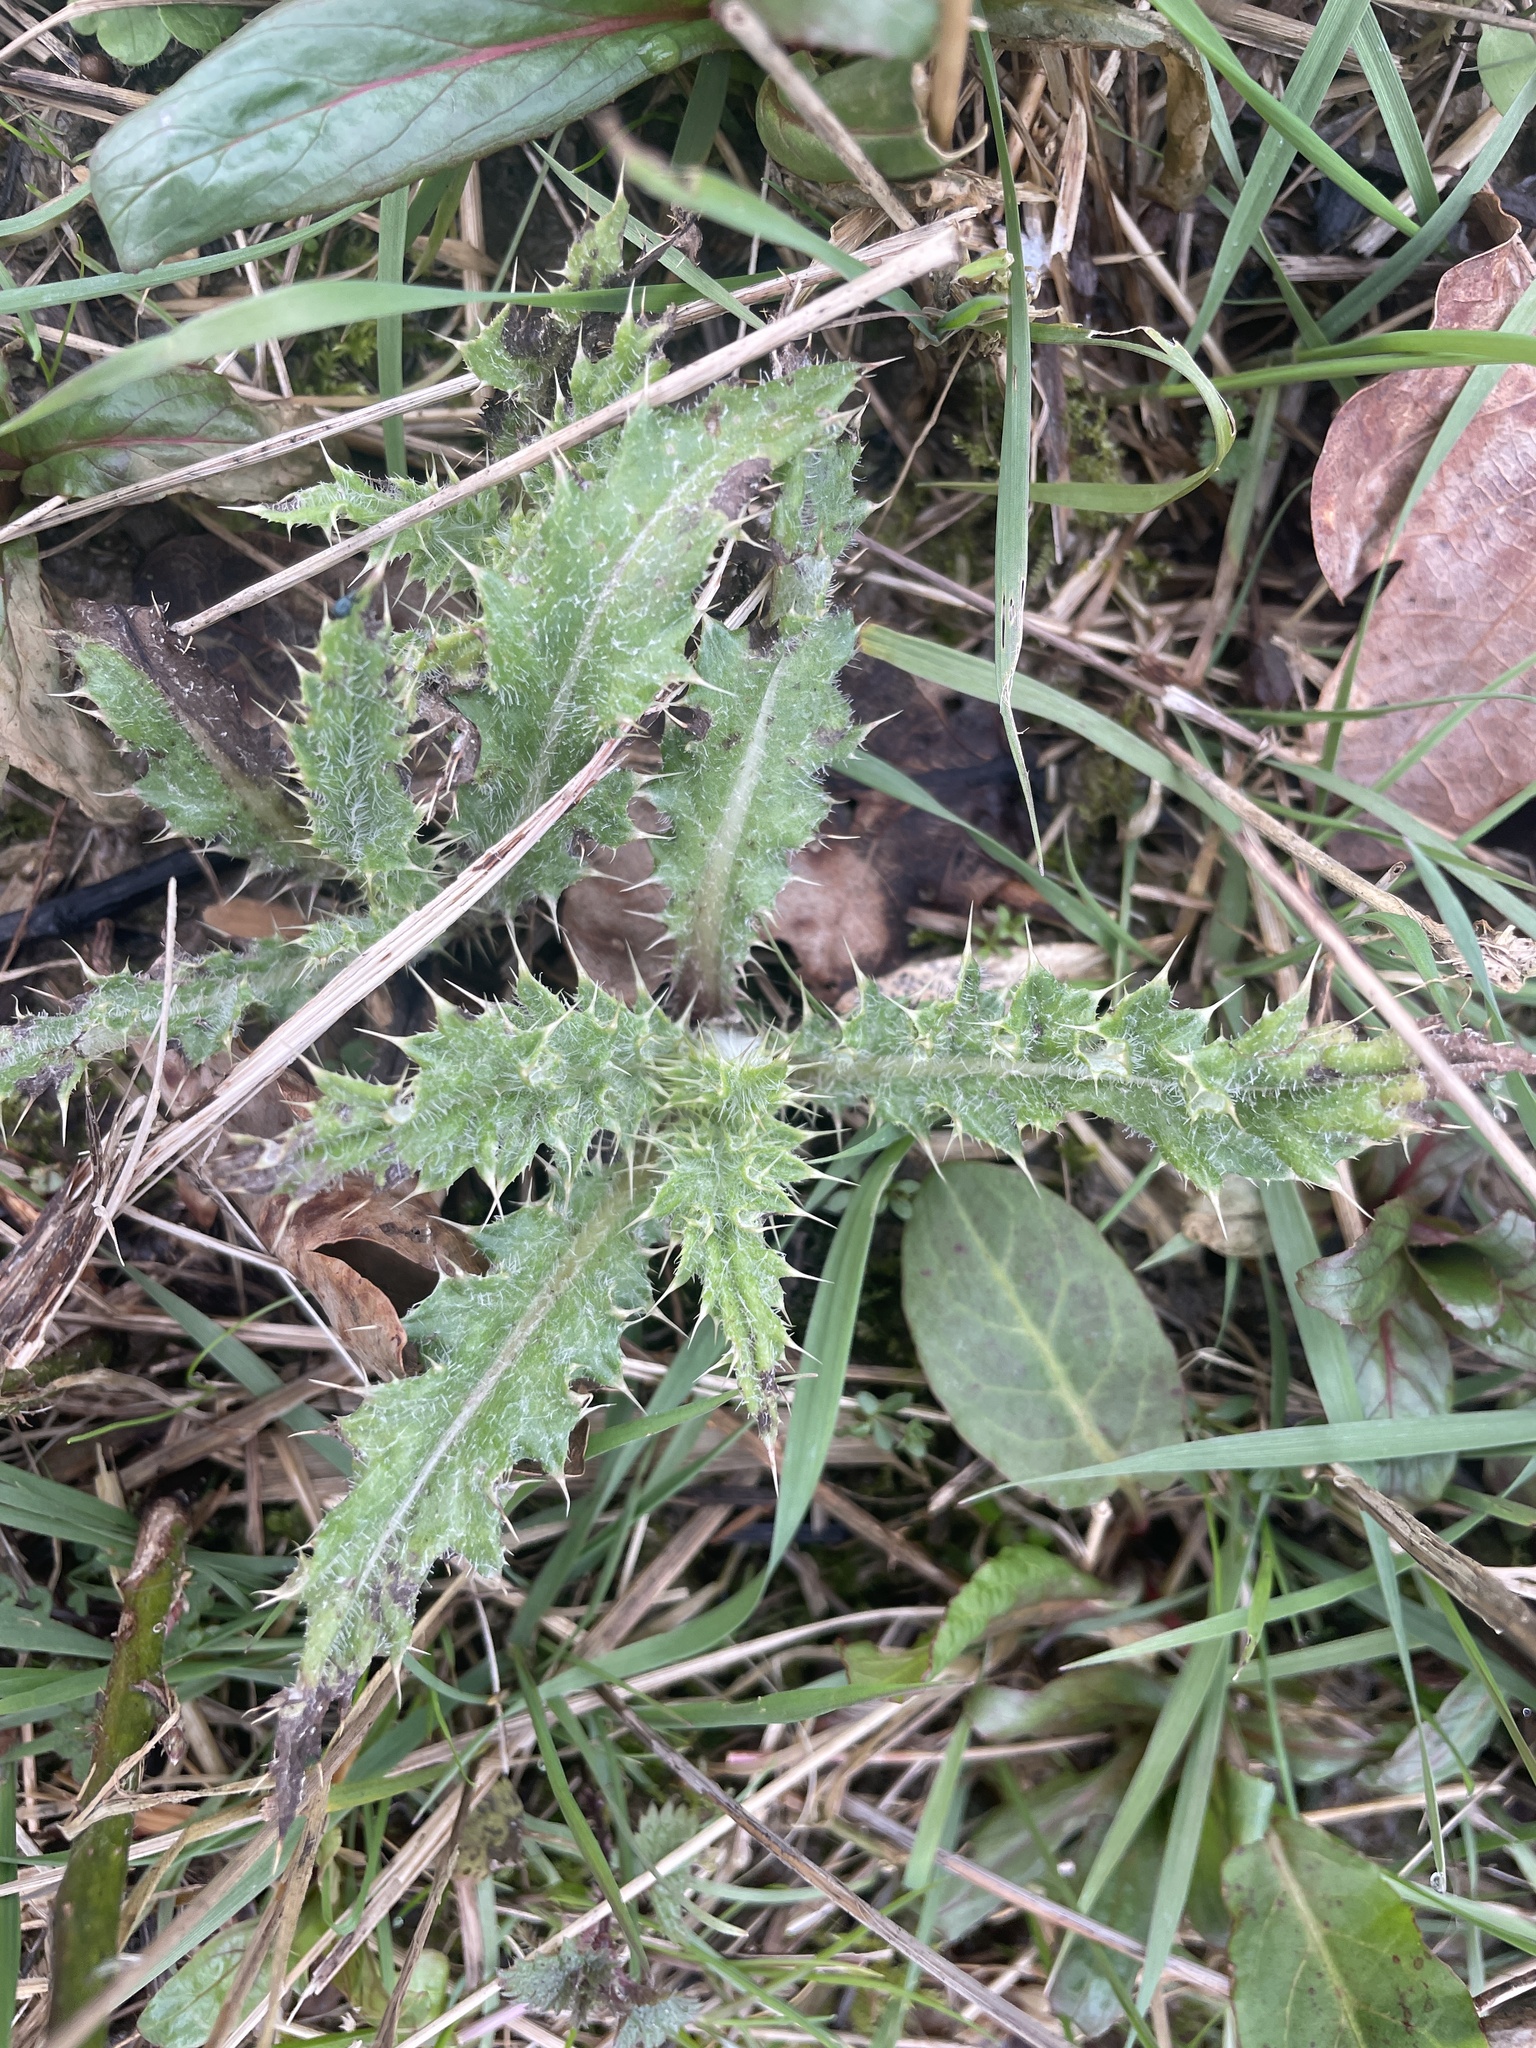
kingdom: Plantae
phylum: Tracheophyta
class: Magnoliopsida
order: Asterales
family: Asteraceae
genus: Cirsium
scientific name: Cirsium arvense
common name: Creeping thistle
